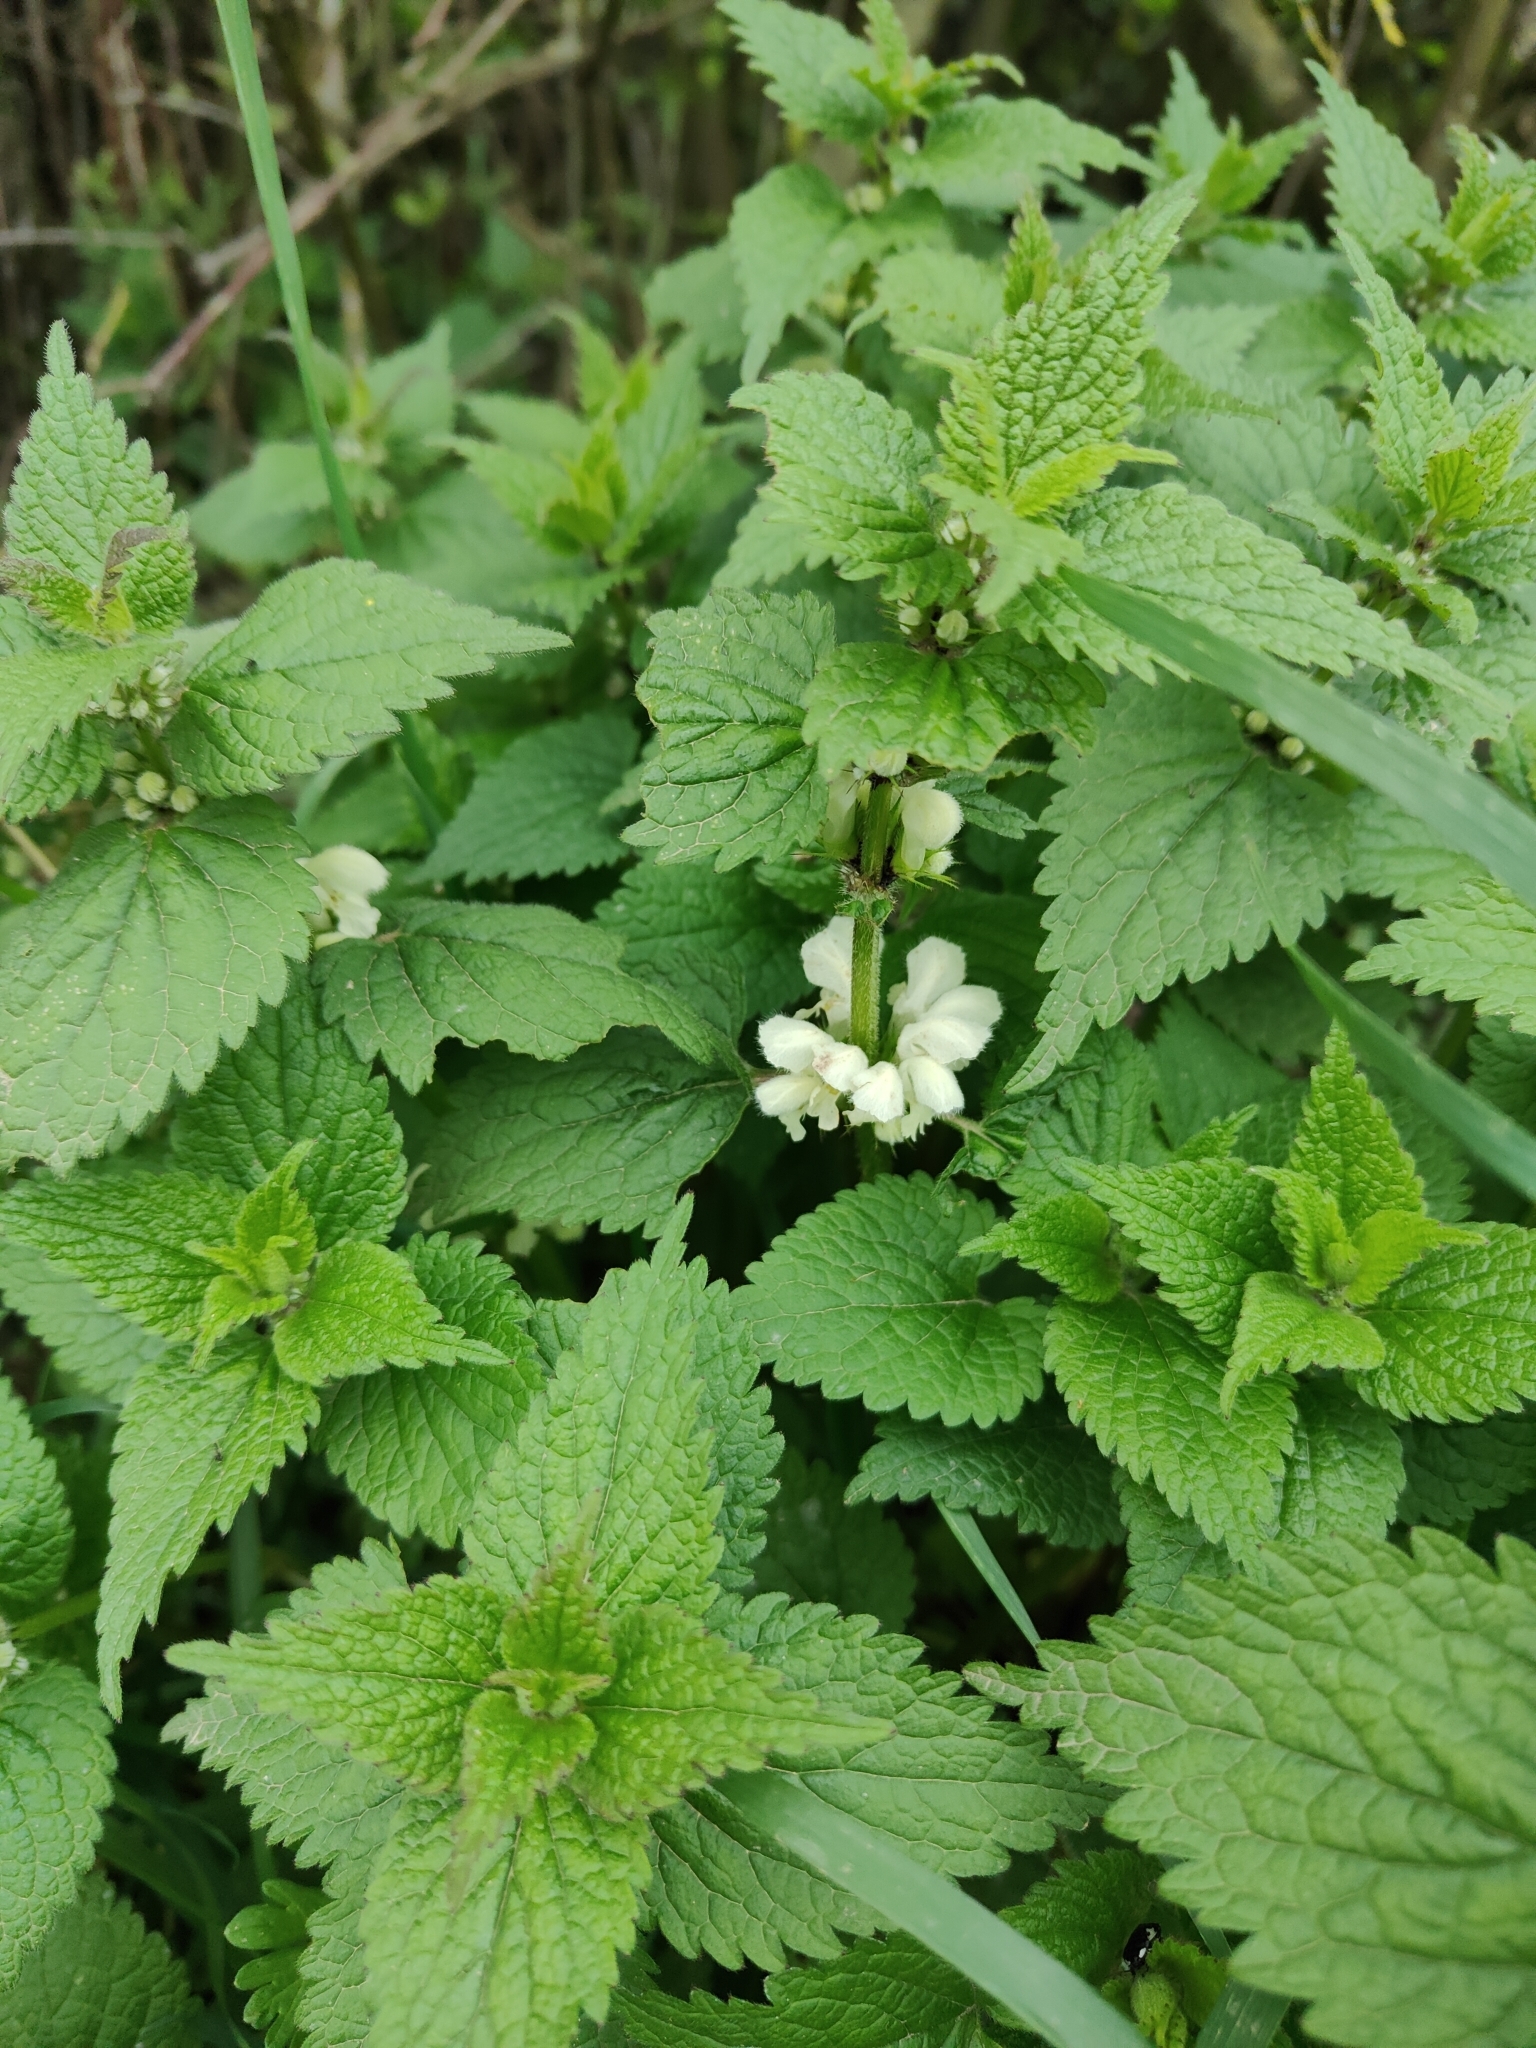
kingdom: Plantae
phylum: Tracheophyta
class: Magnoliopsida
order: Lamiales
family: Lamiaceae
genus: Lamium
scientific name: Lamium album
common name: White dead-nettle
